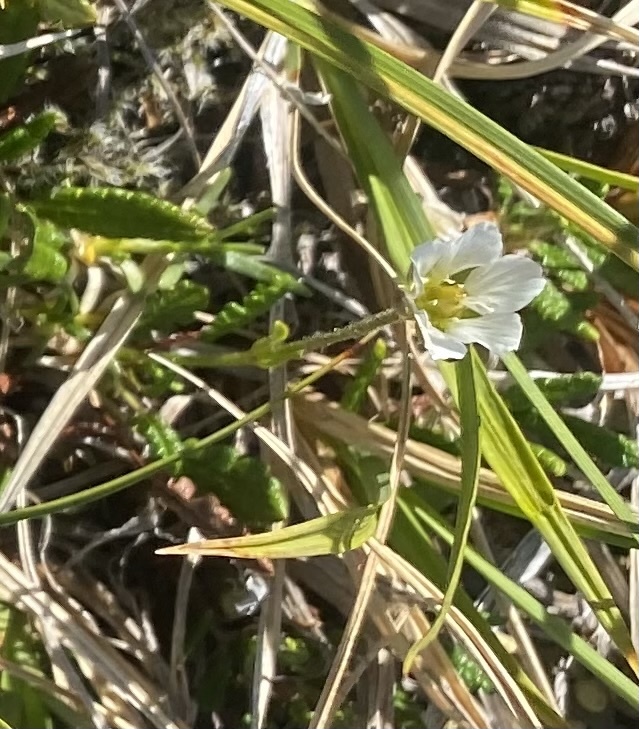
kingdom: Plantae
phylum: Tracheophyta
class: Magnoliopsida
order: Caryophyllales
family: Caryophyllaceae
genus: Cherleria
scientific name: Cherleria arctica
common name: Arctic sandwort
